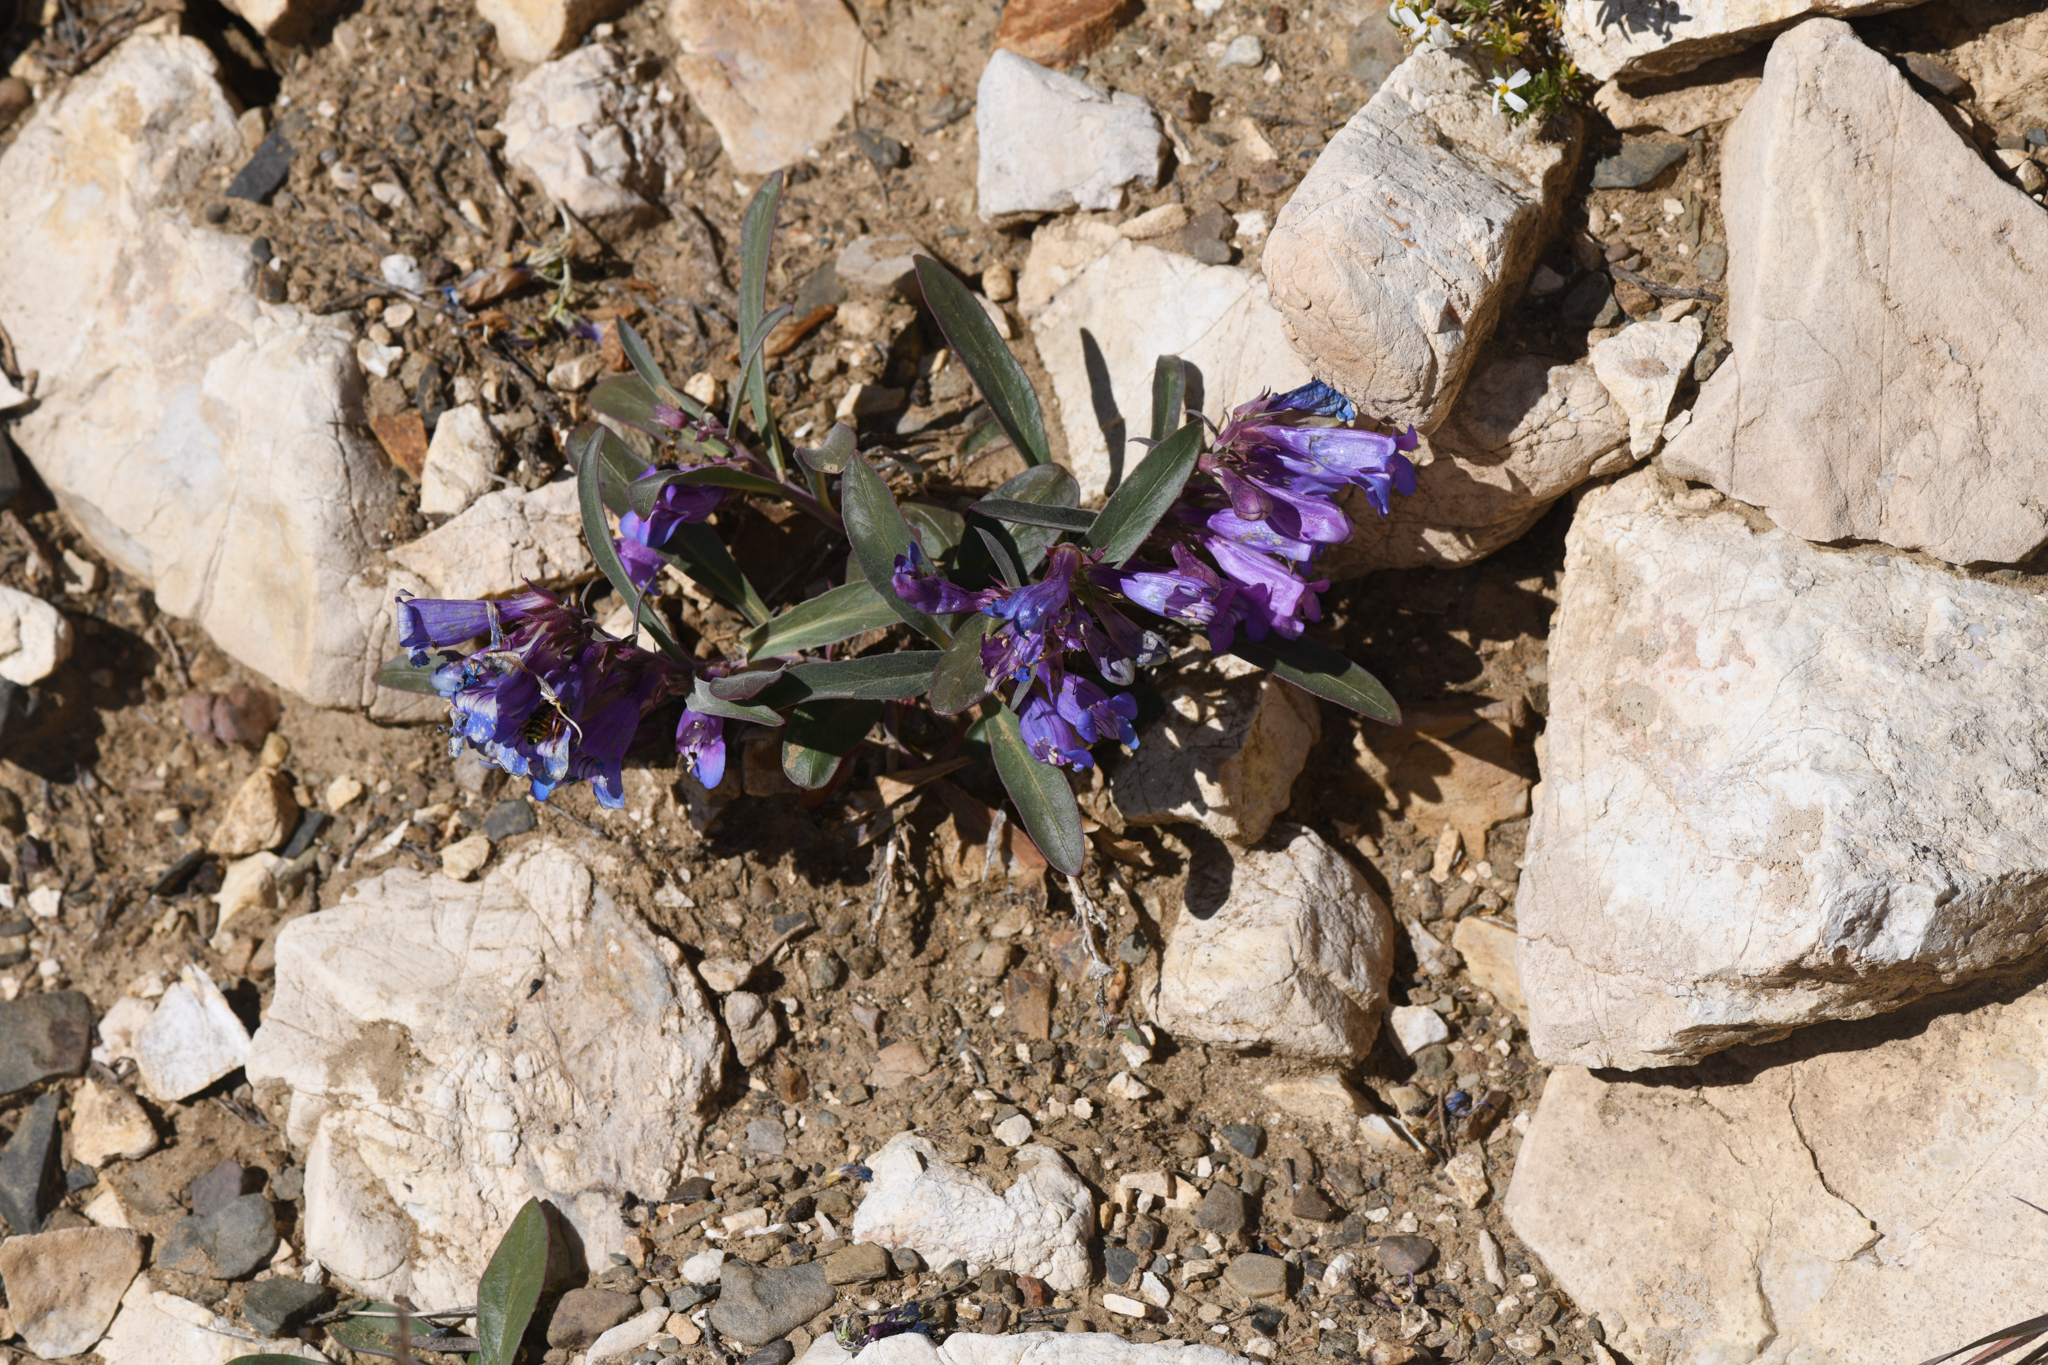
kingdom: Plantae
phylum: Tracheophyta
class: Magnoliopsida
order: Lamiales
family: Plantaginaceae
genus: Penstemon
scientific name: Penstemon speciosus
